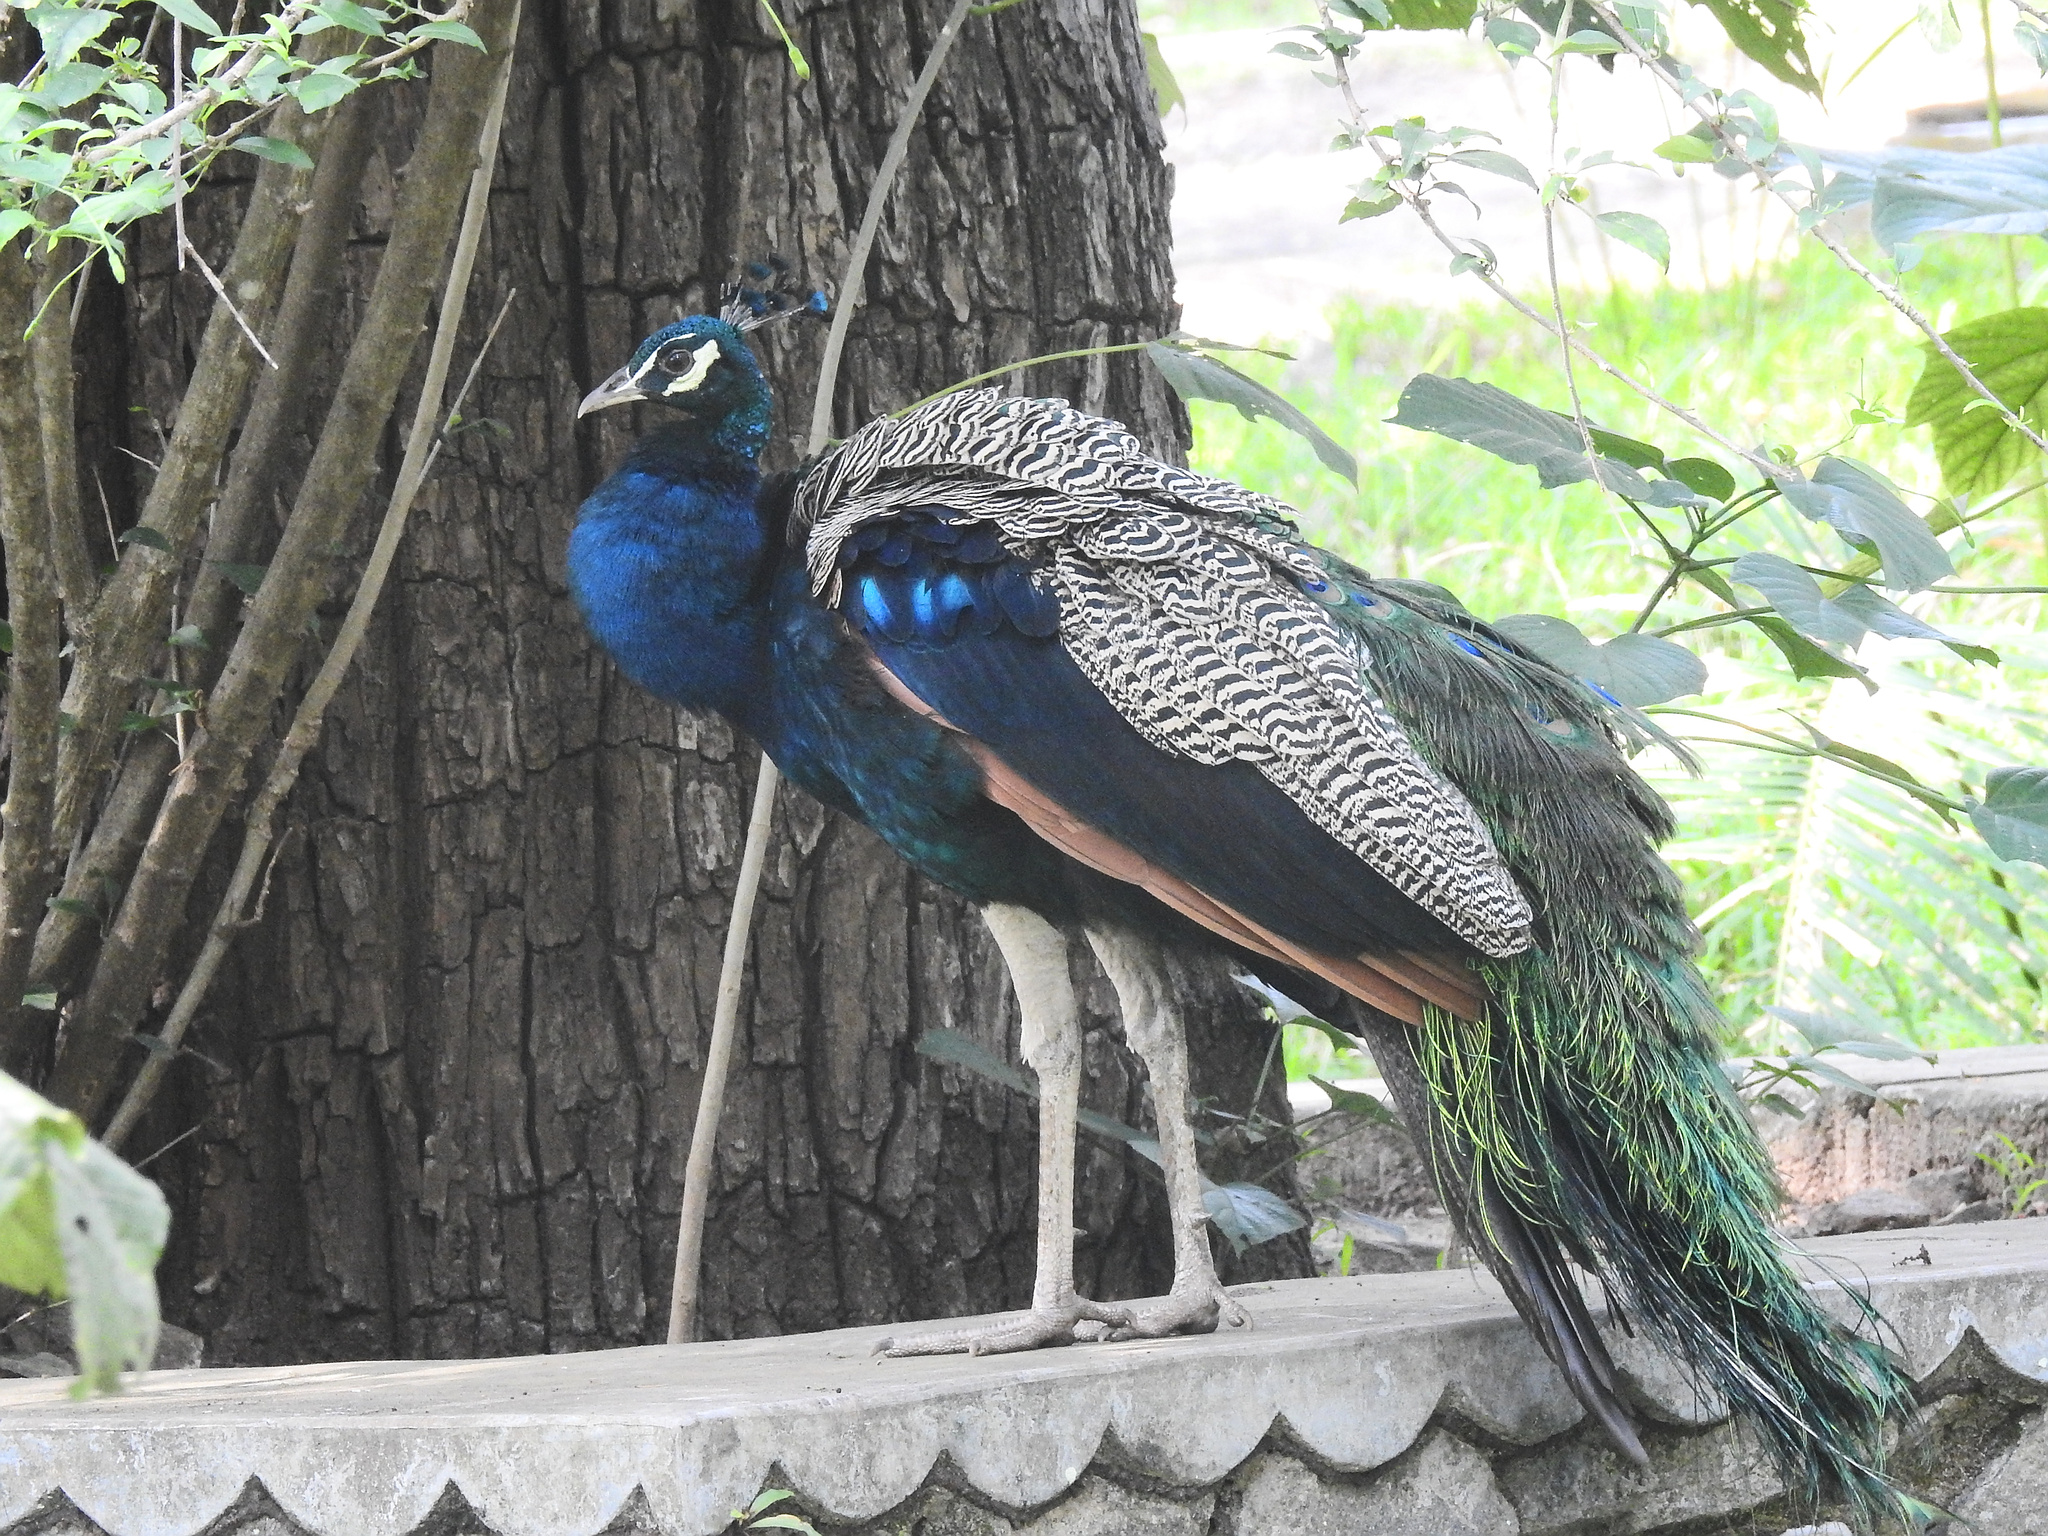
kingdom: Animalia
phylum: Chordata
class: Aves
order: Galliformes
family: Phasianidae
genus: Pavo
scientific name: Pavo cristatus
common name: Indian peafowl
